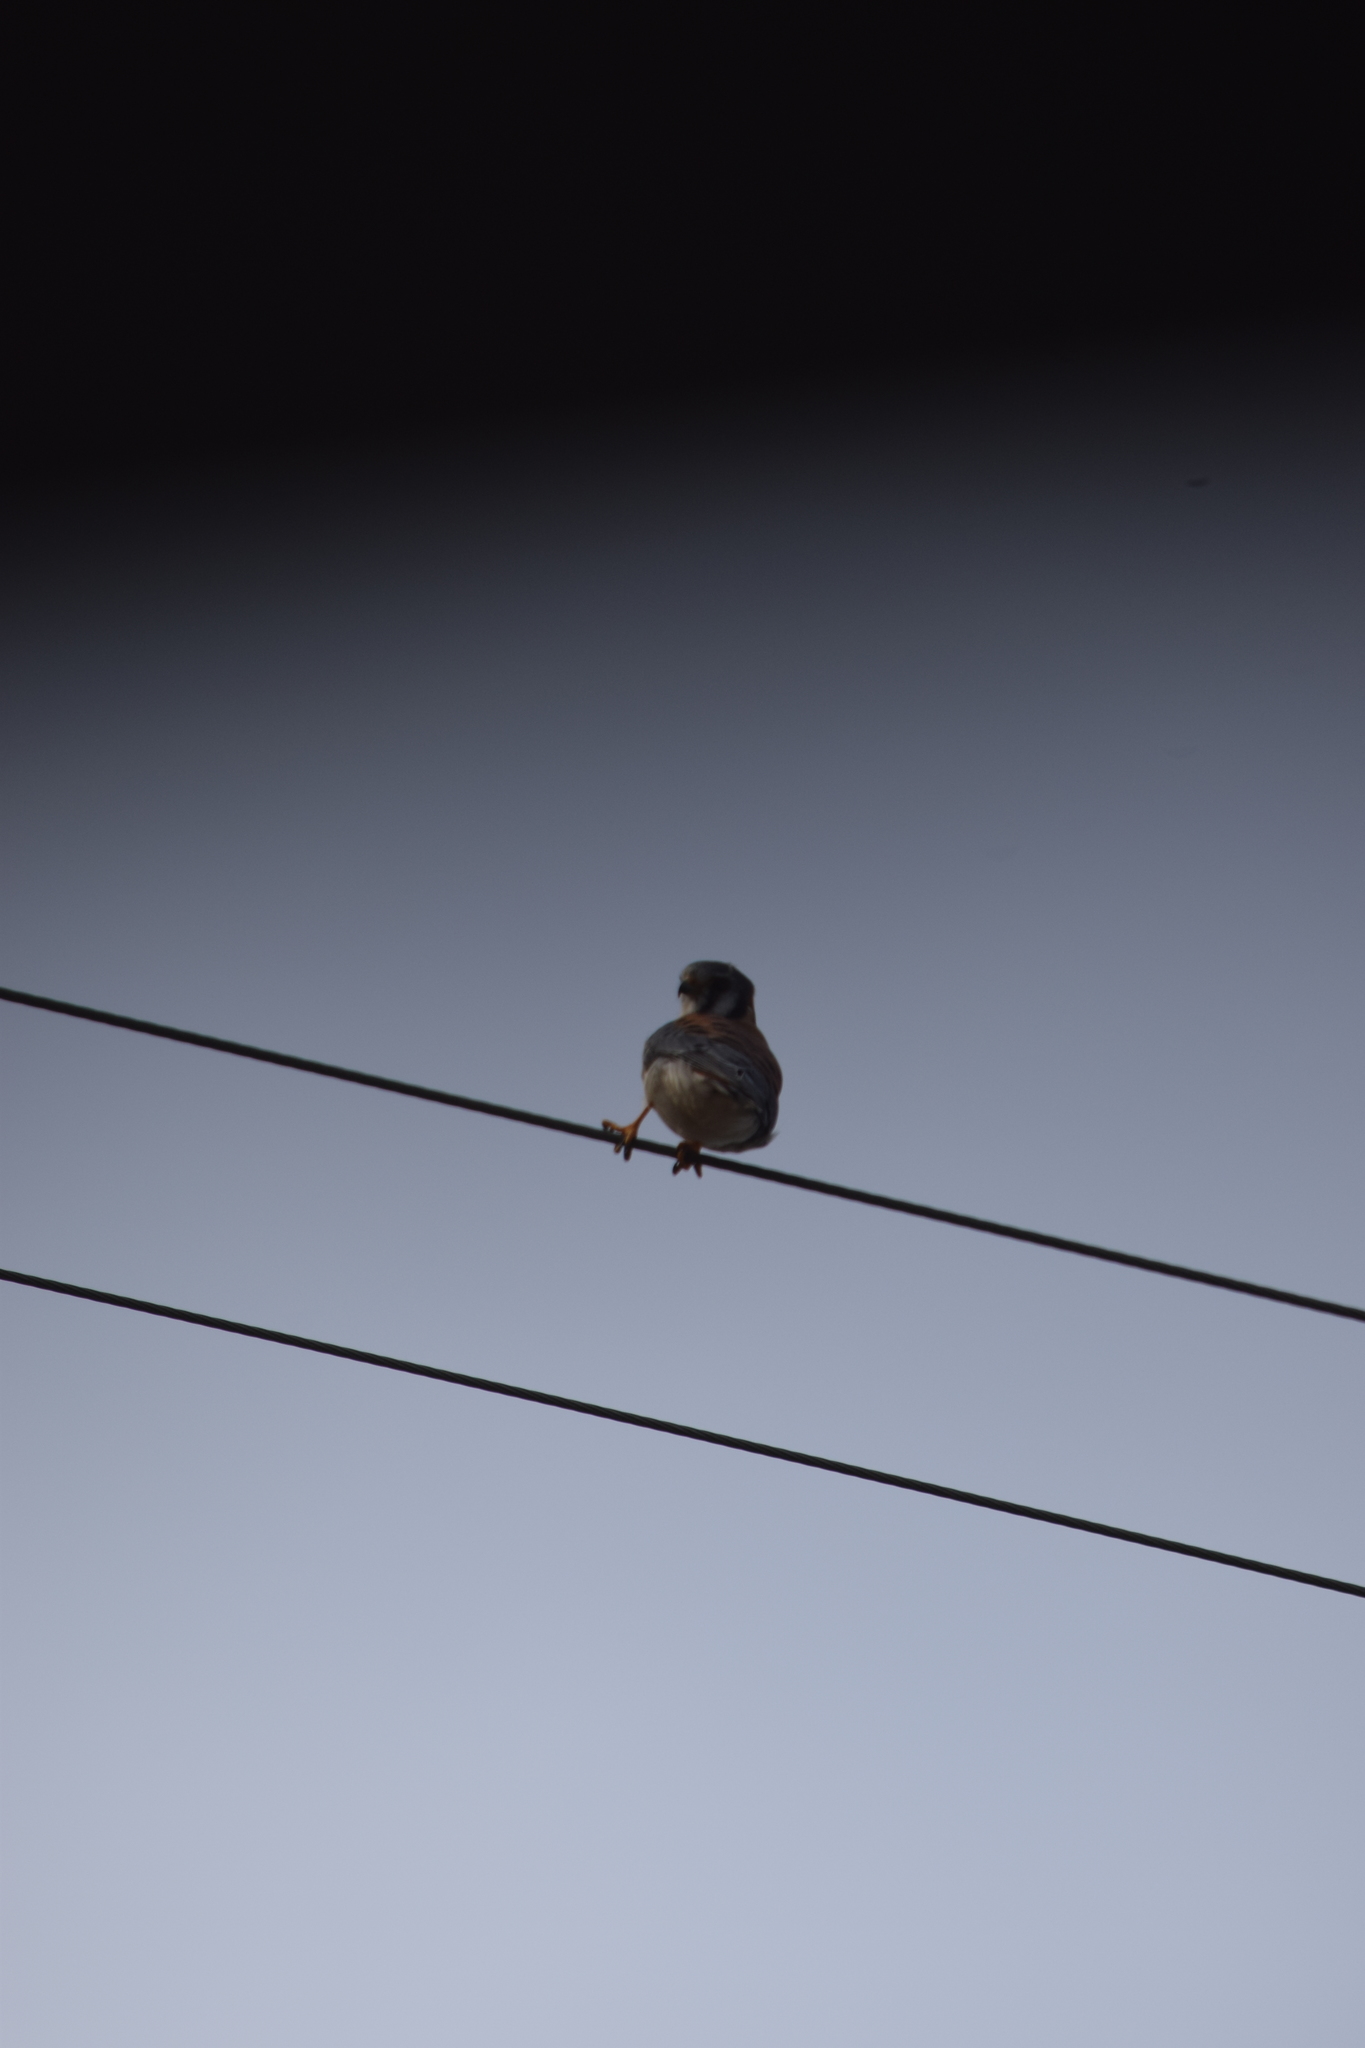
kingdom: Animalia
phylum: Chordata
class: Aves
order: Falconiformes
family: Falconidae
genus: Falco
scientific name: Falco sparverius
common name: American kestrel
